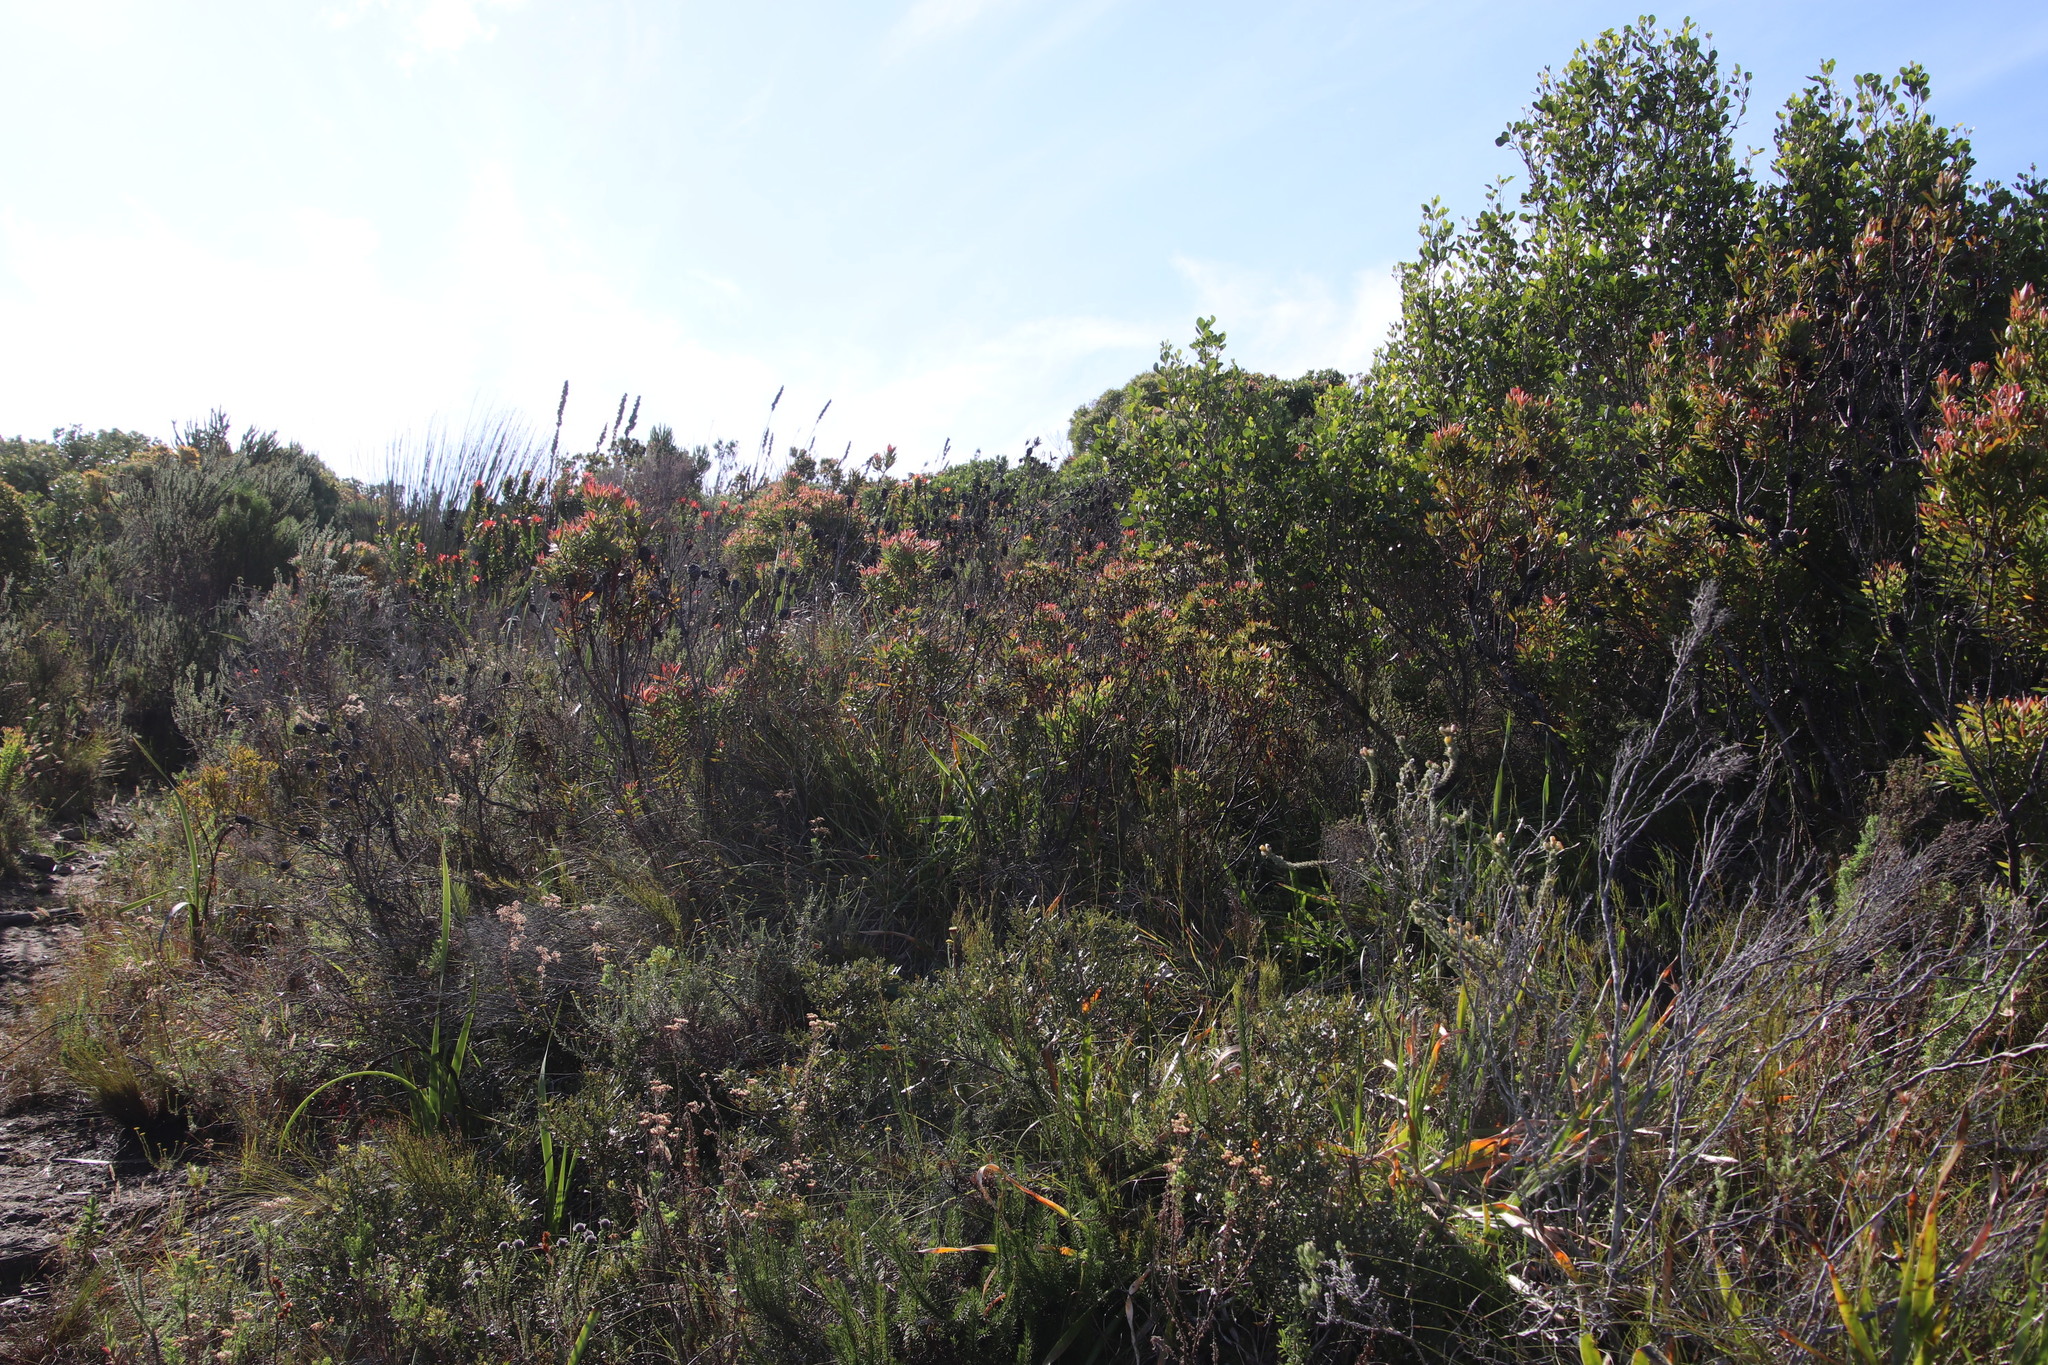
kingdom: Plantae
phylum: Tracheophyta
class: Magnoliopsida
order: Proteales
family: Proteaceae
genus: Leucadendron
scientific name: Leucadendron spissifolium
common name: Spear-leaf conebush
